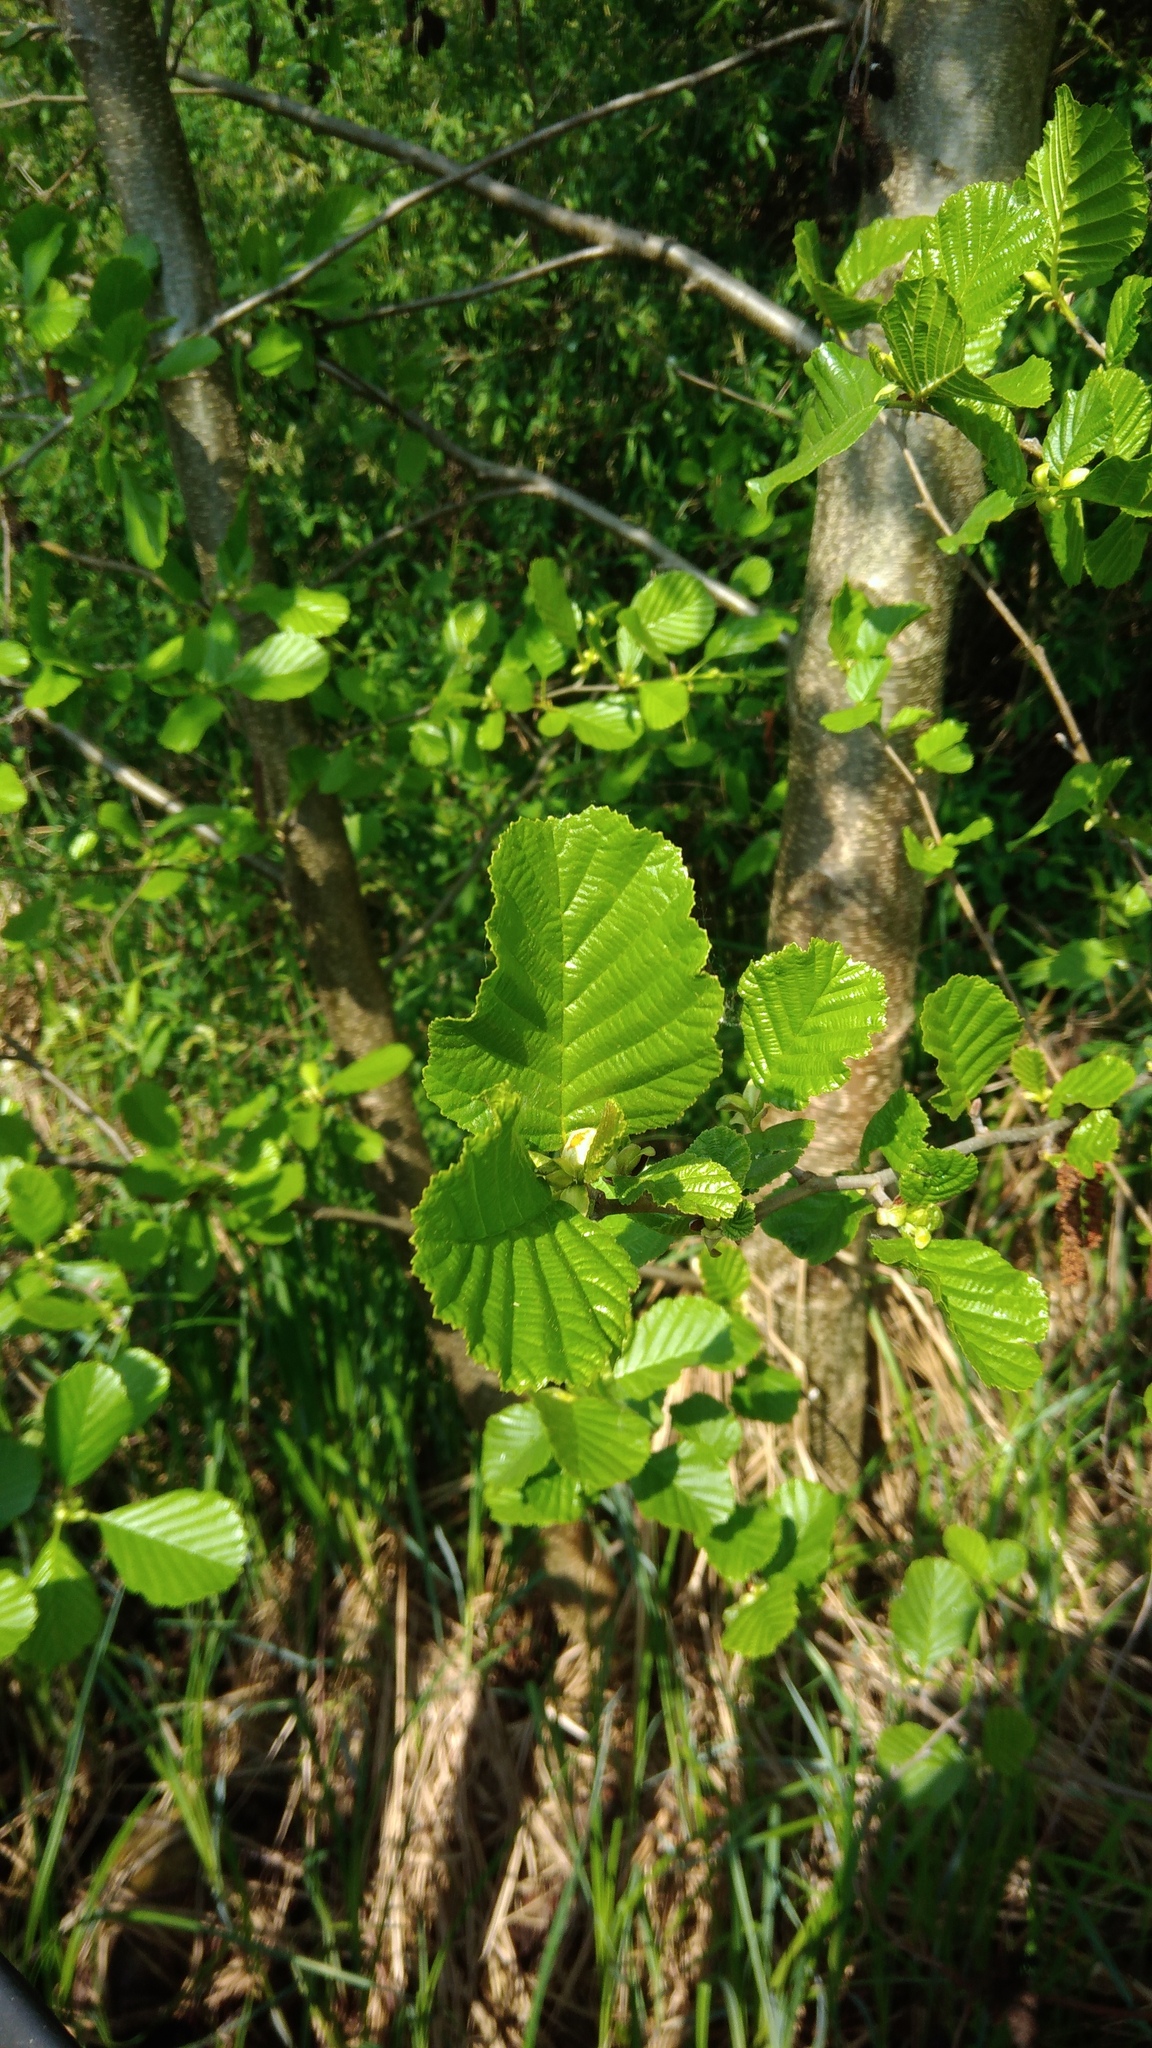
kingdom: Plantae
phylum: Tracheophyta
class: Magnoliopsida
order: Fagales
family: Betulaceae
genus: Alnus
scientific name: Alnus glutinosa
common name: Black alder
